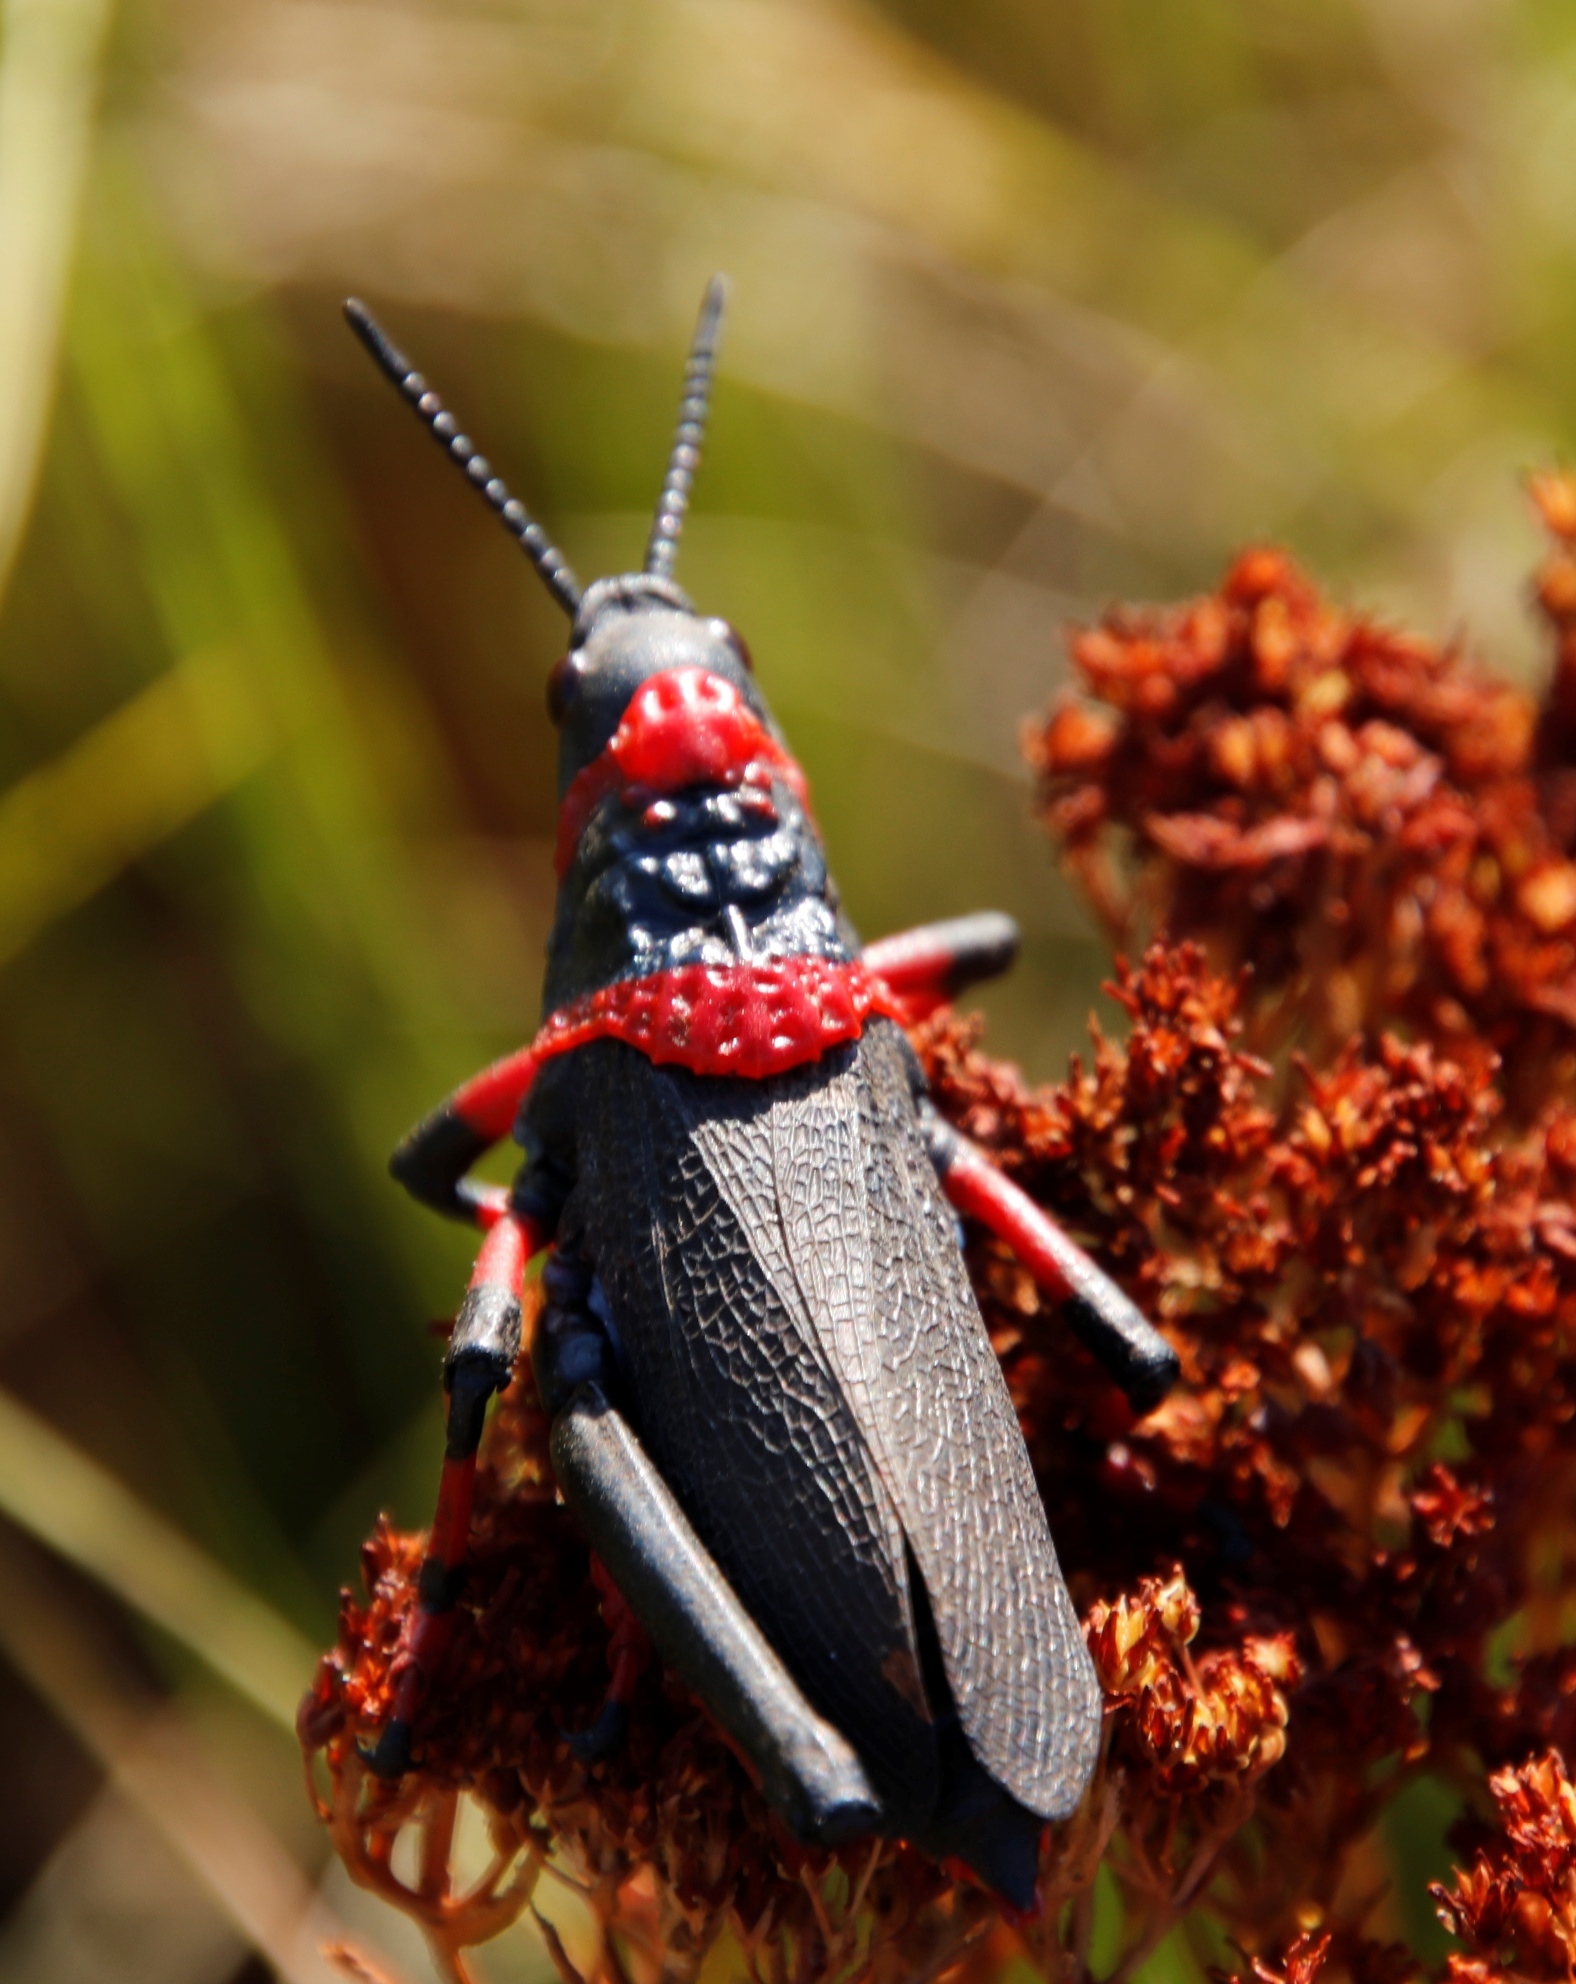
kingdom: Animalia
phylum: Arthropoda
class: Insecta
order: Orthoptera
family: Pyrgomorphidae
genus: Dictyophorus
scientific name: Dictyophorus spumans
